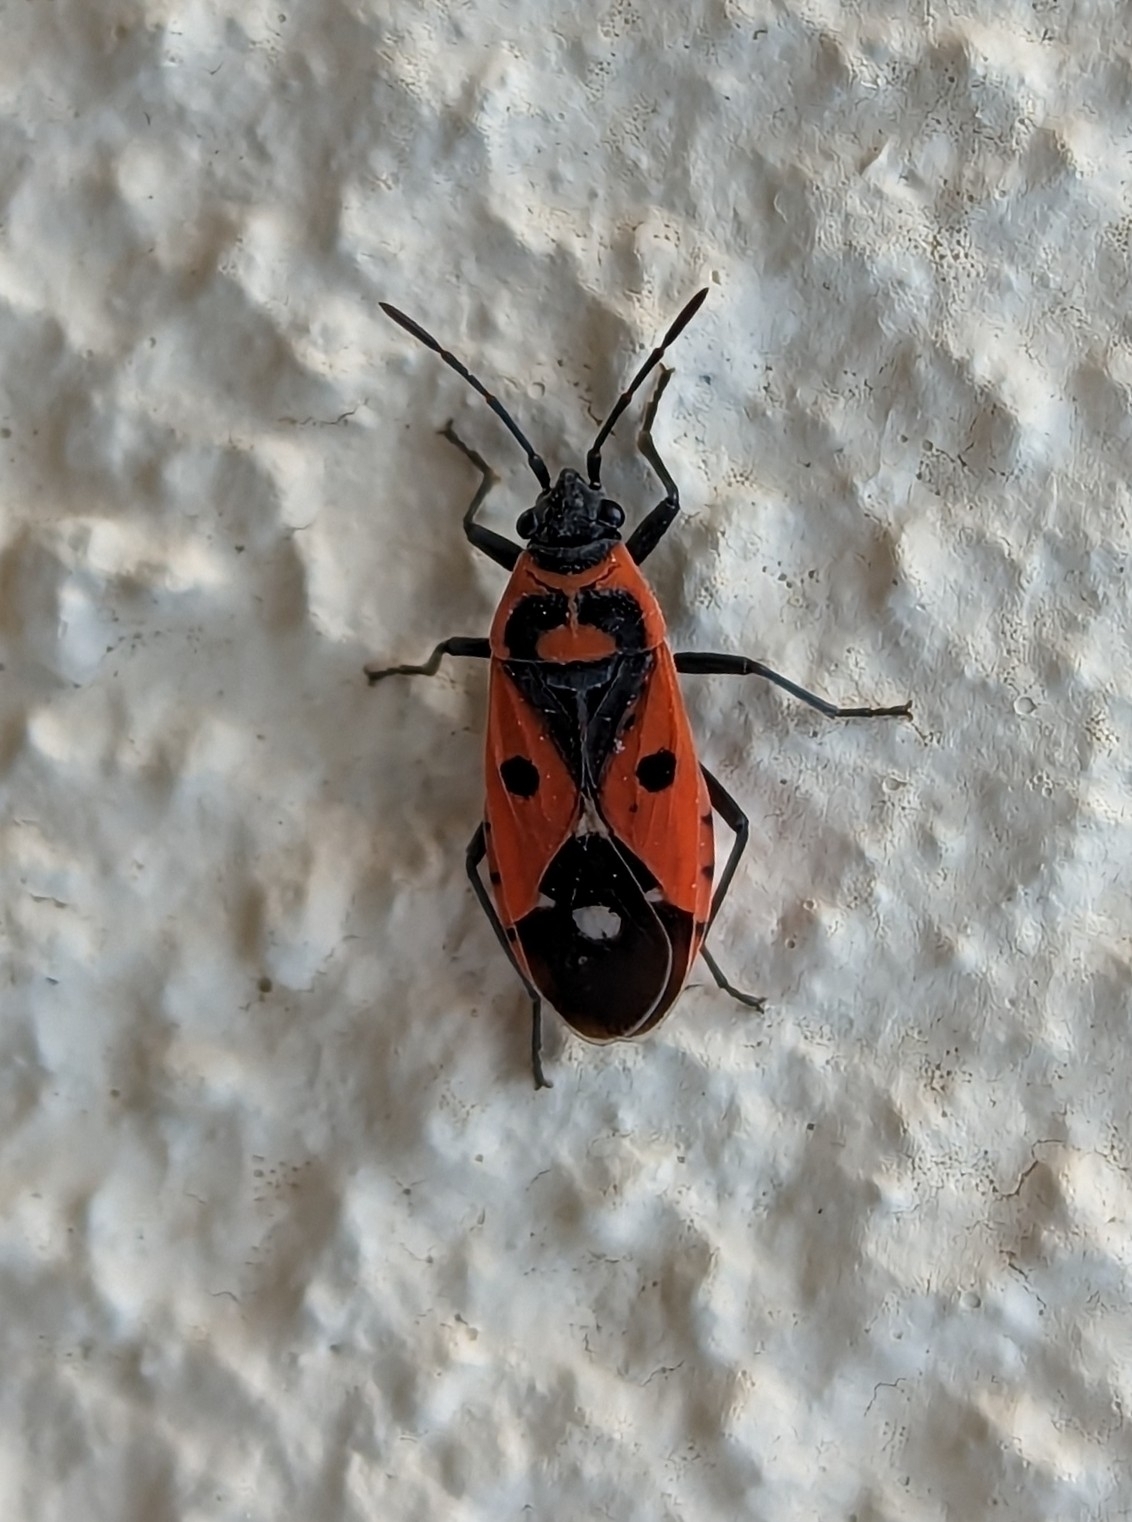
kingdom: Animalia
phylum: Arthropoda
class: Insecta
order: Hemiptera
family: Lygaeidae
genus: Melanocoryphus
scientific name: Melanocoryphus albomaculatus
